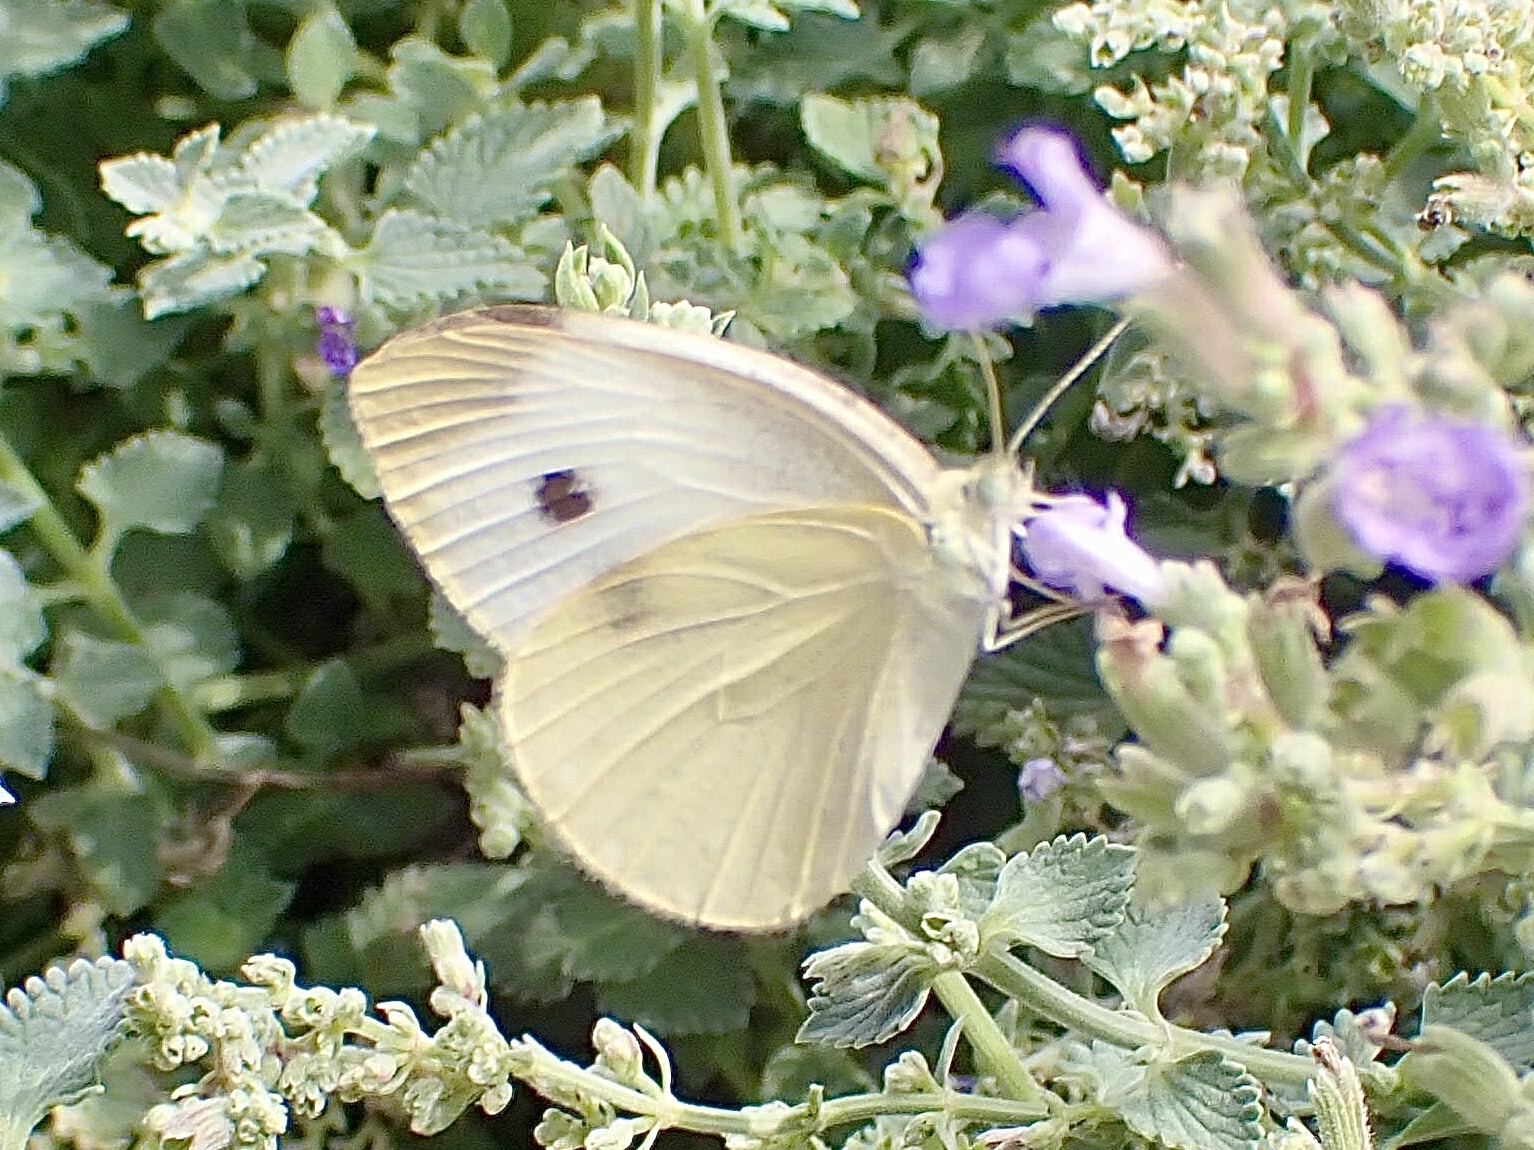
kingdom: Animalia
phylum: Arthropoda
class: Insecta
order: Lepidoptera
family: Pieridae
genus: Pieris
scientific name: Pieris rapae
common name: Small white
